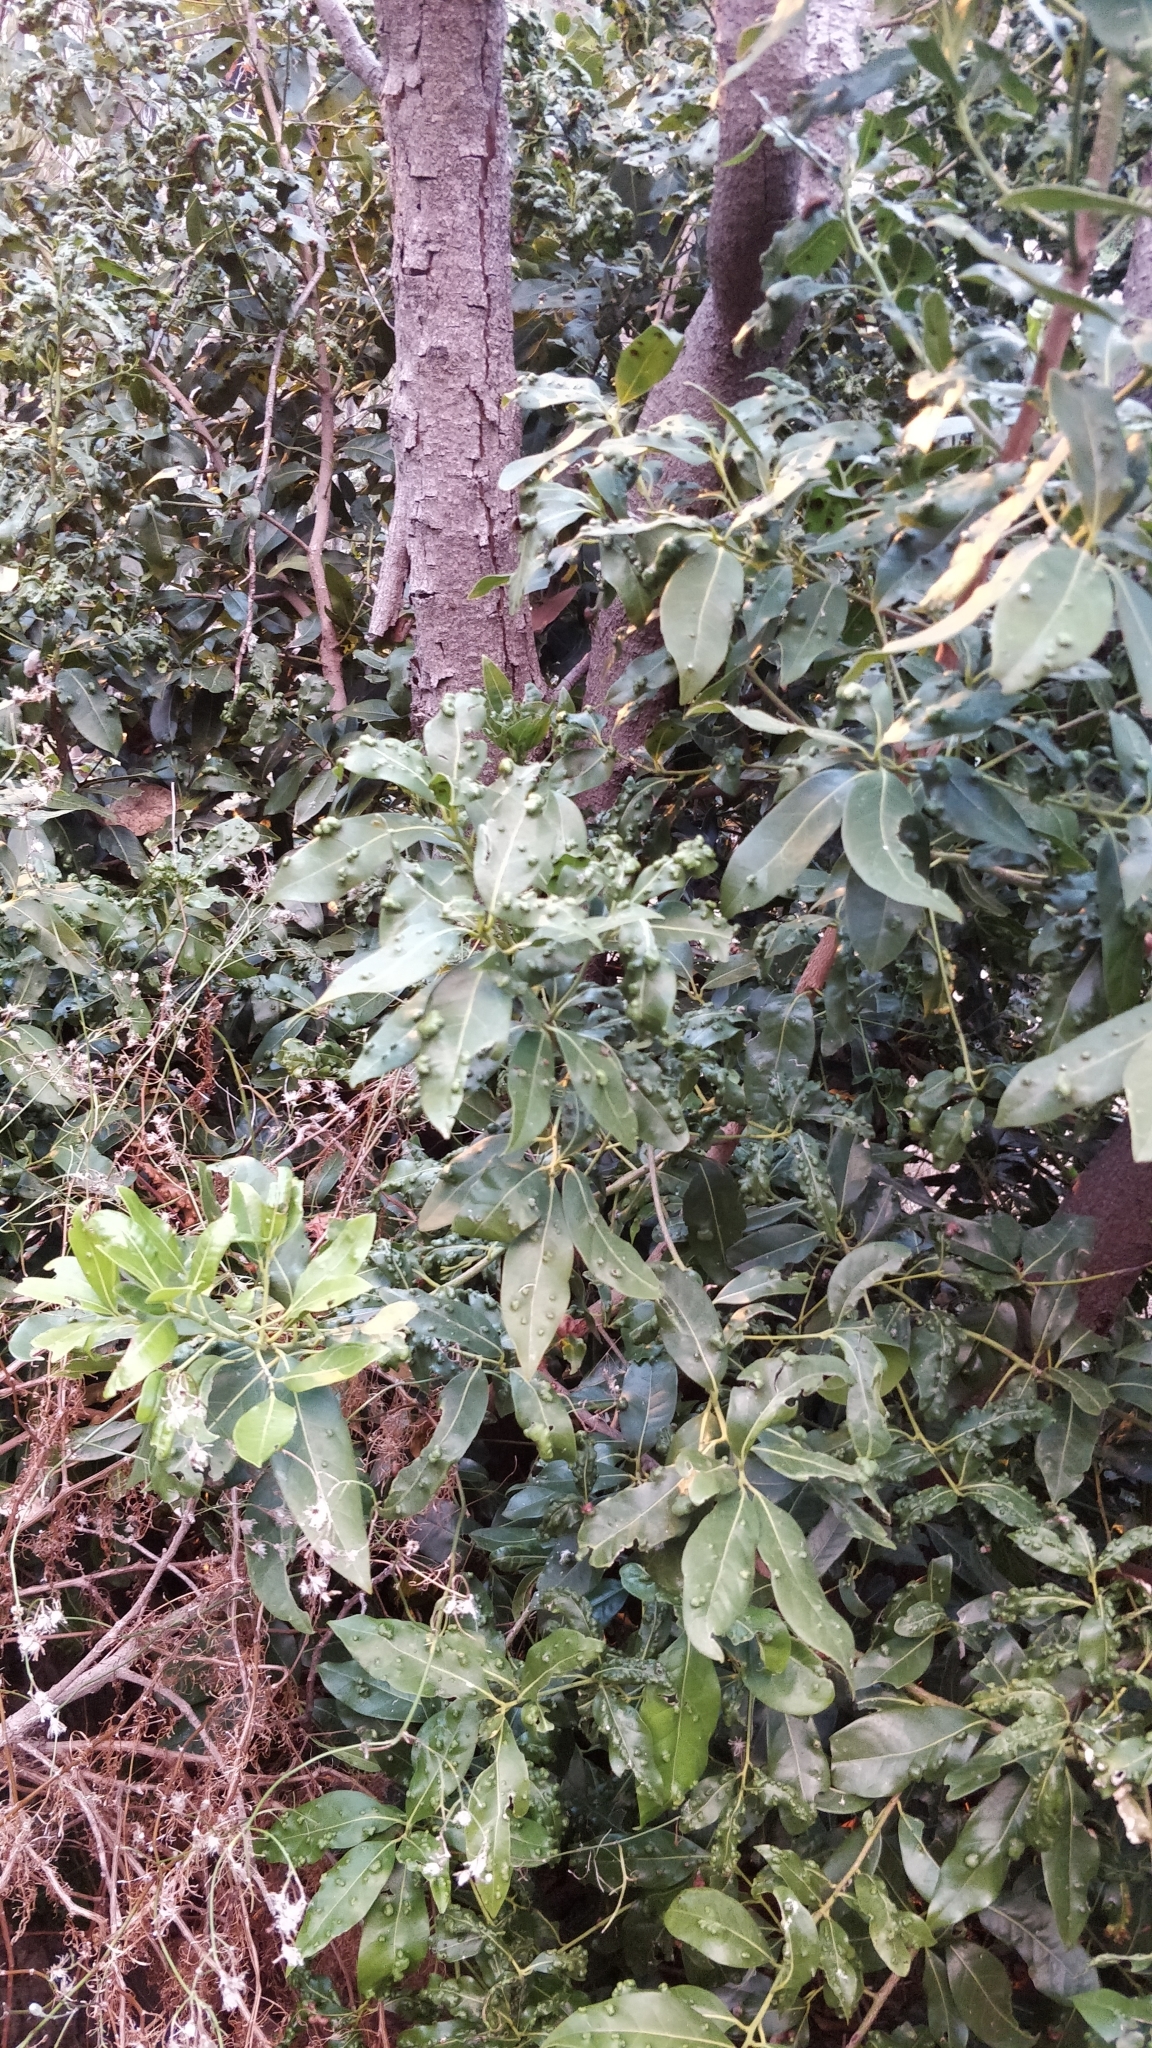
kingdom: Plantae
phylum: Tracheophyta
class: Magnoliopsida
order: Laurales
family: Lauraceae
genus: Apollonias
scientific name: Apollonias barbujana
